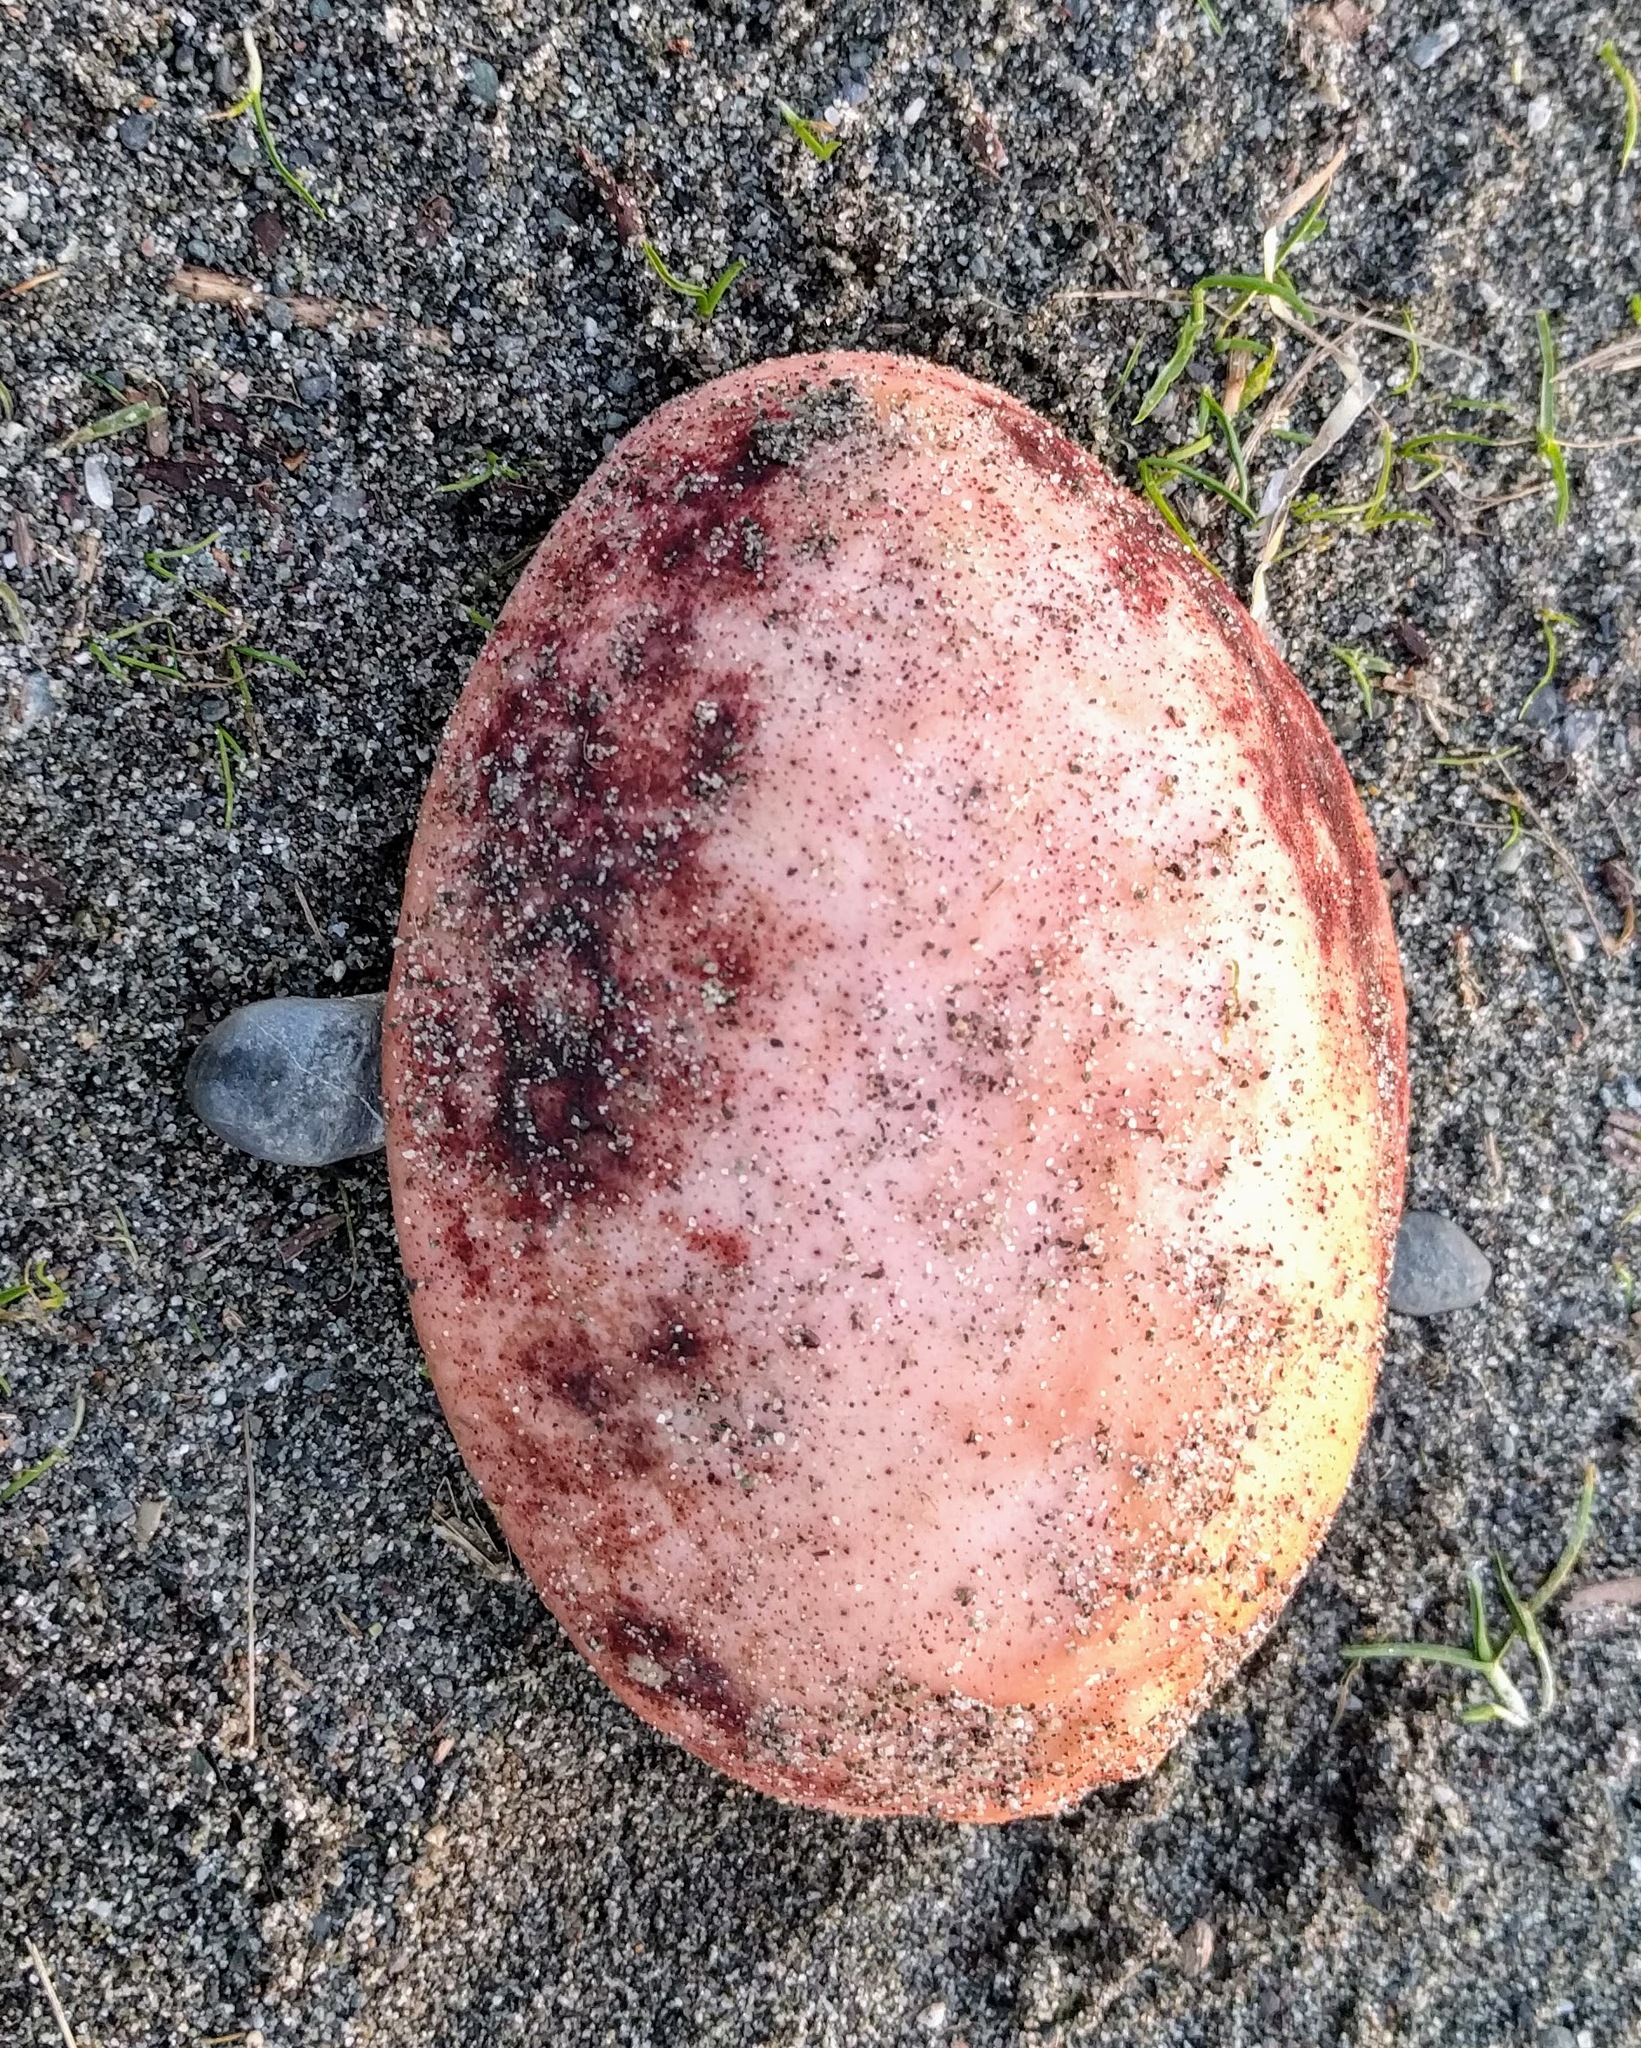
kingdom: Animalia
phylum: Mollusca
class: Polyplacophora
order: Chitonida
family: Acanthochitonidae
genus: Cryptochiton
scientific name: Cryptochiton stelleri
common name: Giant pacific chiton
